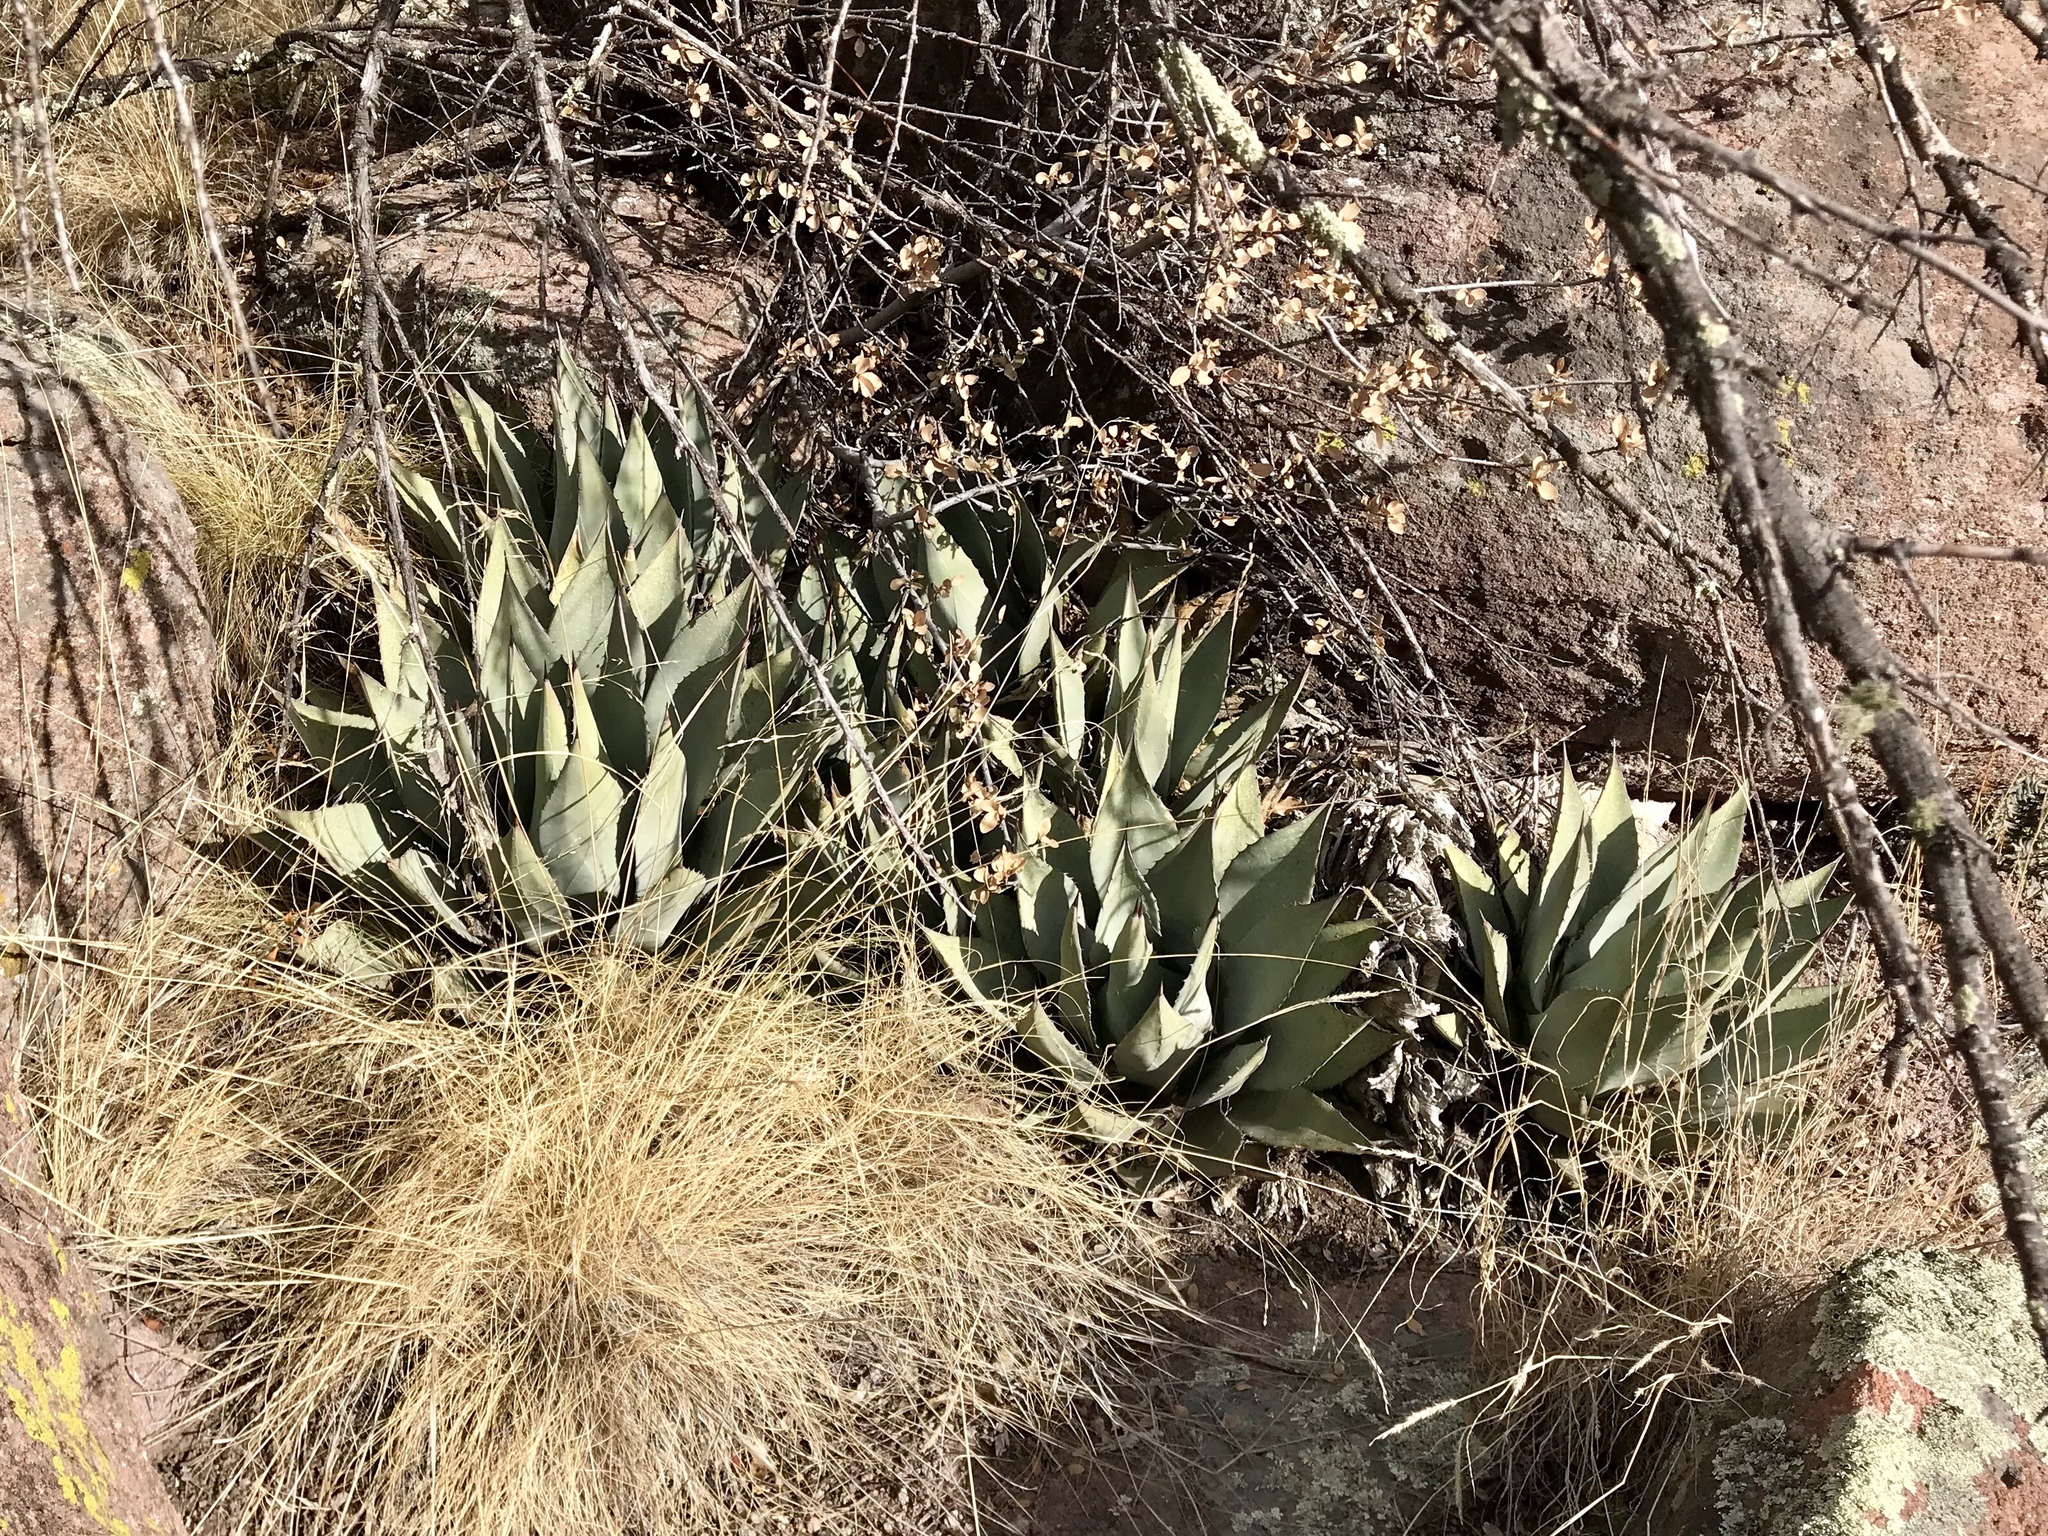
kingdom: Plantae
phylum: Tracheophyta
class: Liliopsida
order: Asparagales
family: Asparagaceae
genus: Agave
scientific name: Agave parryi
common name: Parry's agave
